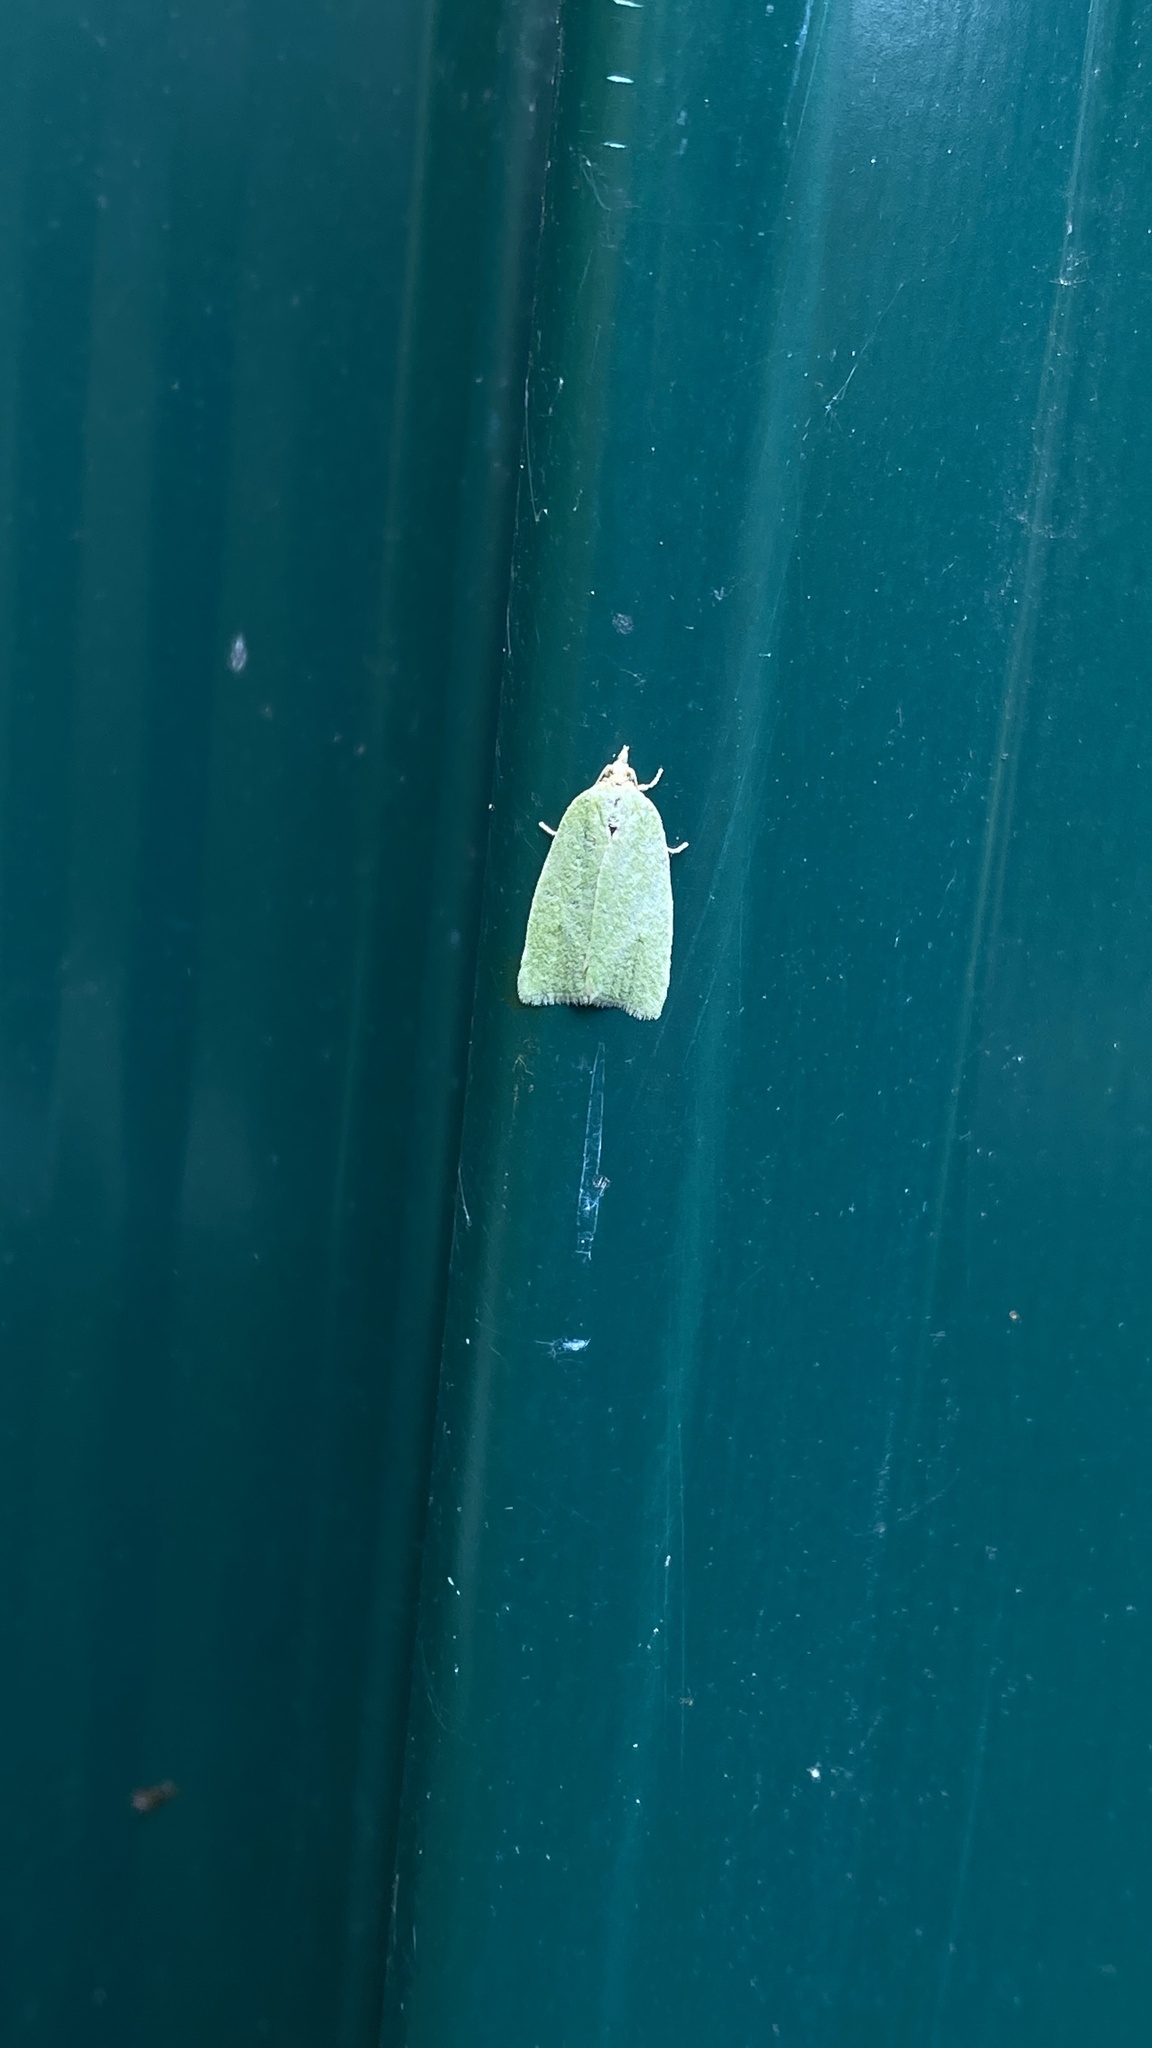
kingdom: Animalia
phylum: Arthropoda
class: Insecta
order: Lepidoptera
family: Tortricidae
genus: Tortrix
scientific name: Tortrix viridana
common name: Green oak tortrix
